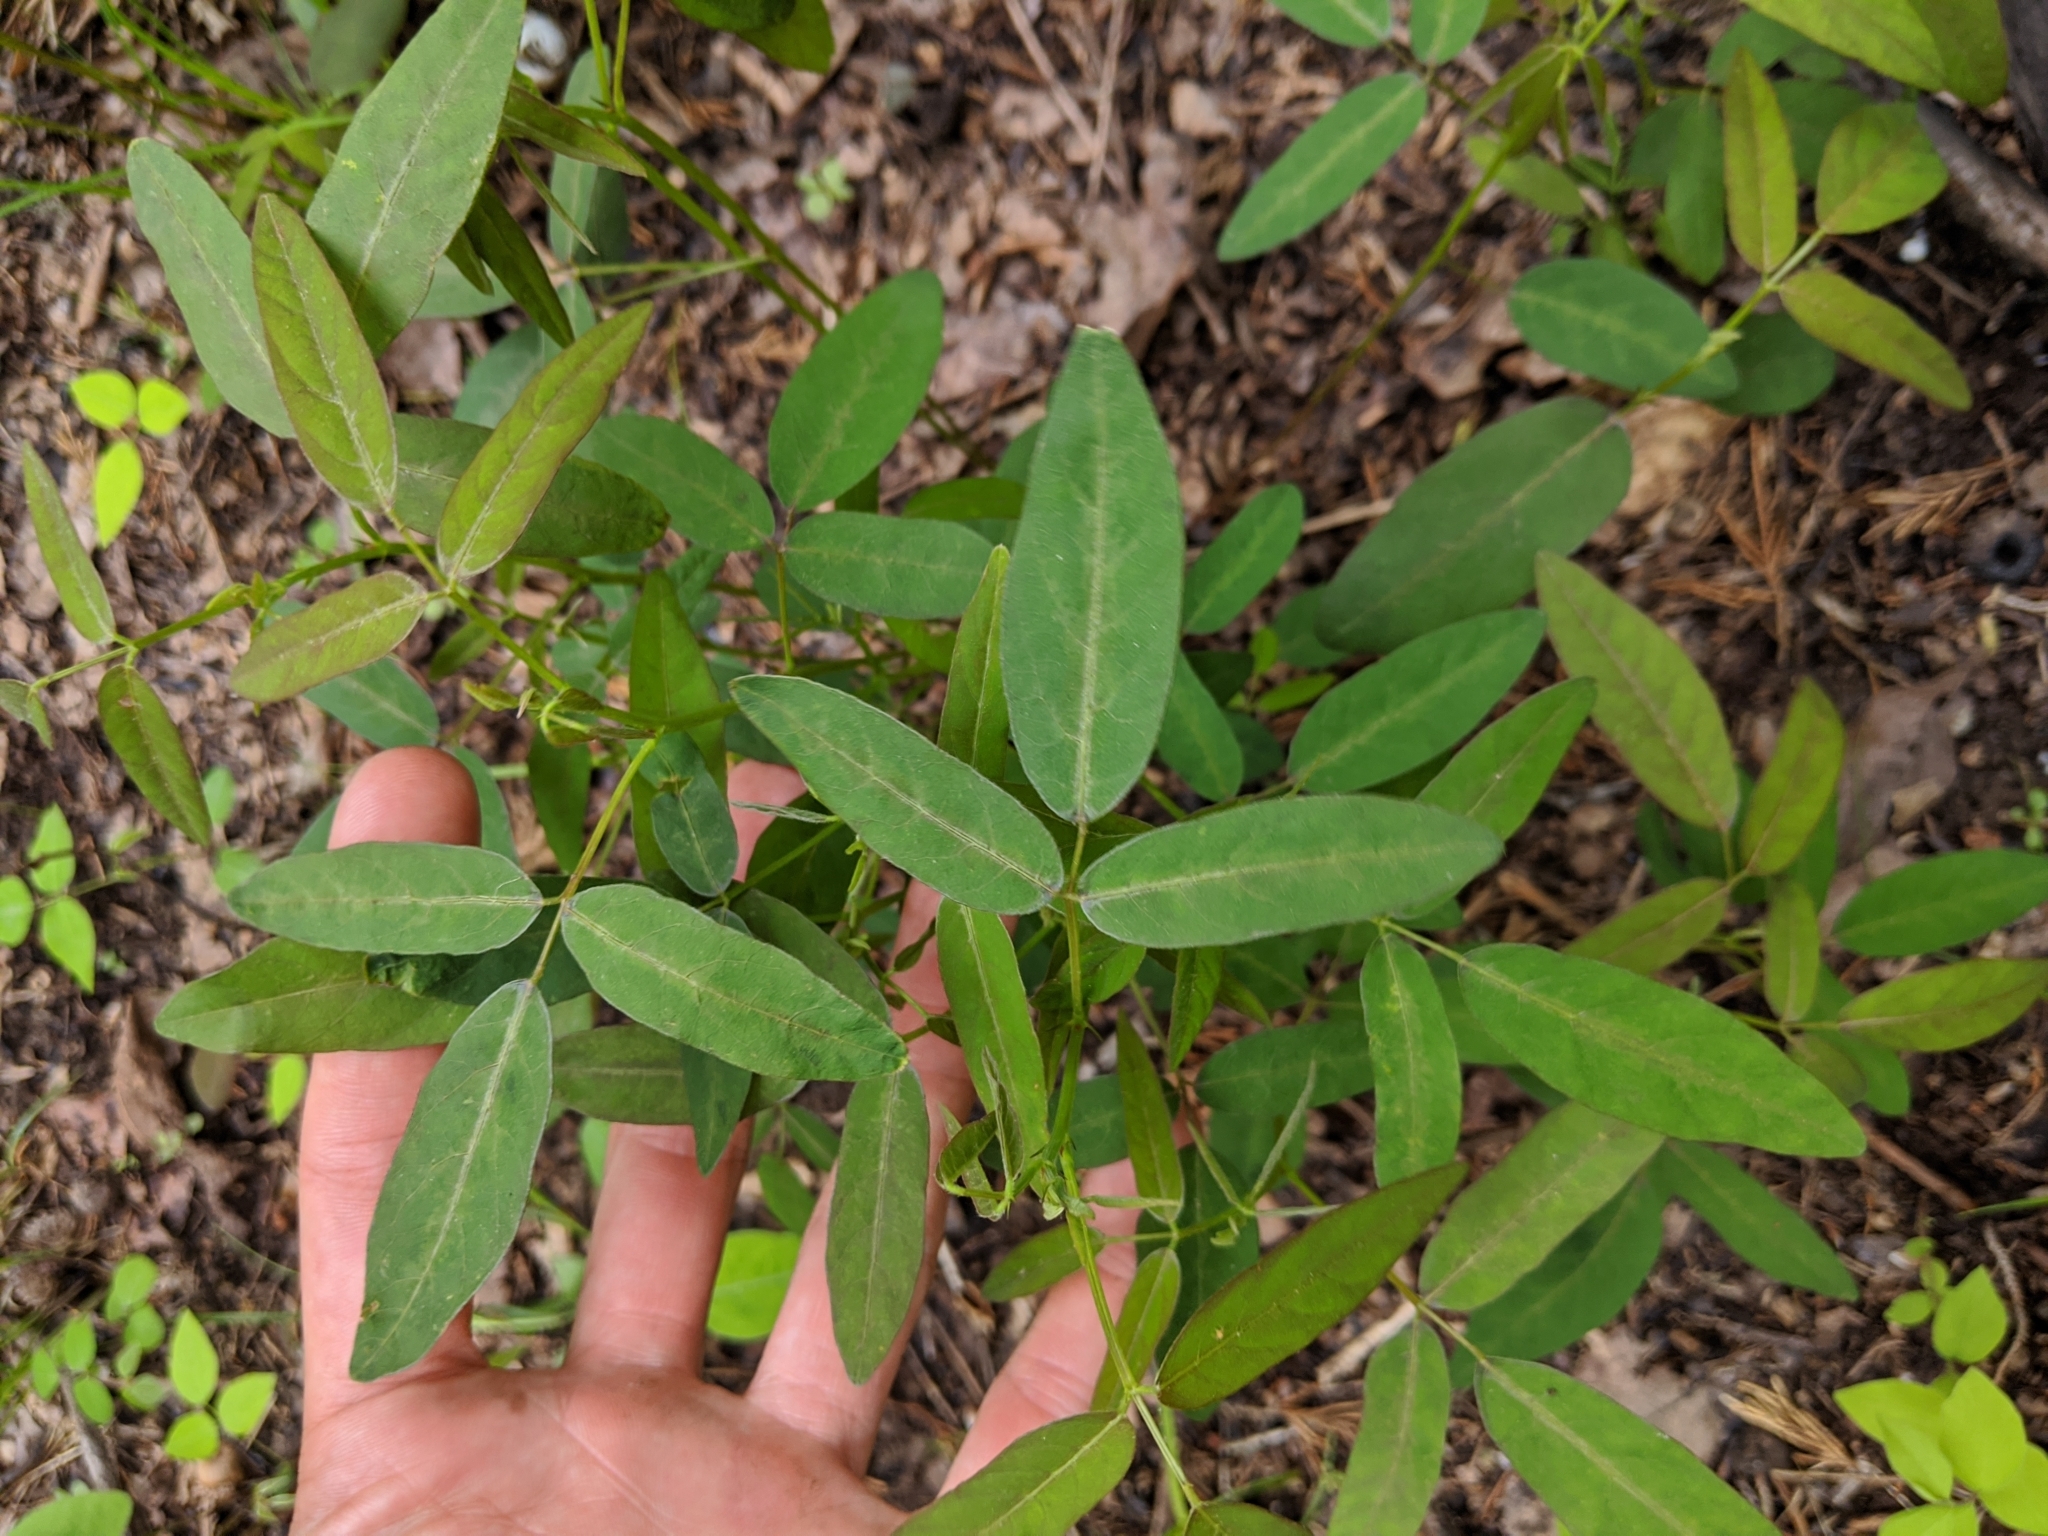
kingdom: Plantae
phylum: Tracheophyta
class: Magnoliopsida
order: Fabales
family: Fabaceae
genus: Desmodium
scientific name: Desmodium paniculatum
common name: Panicled tick-clover
